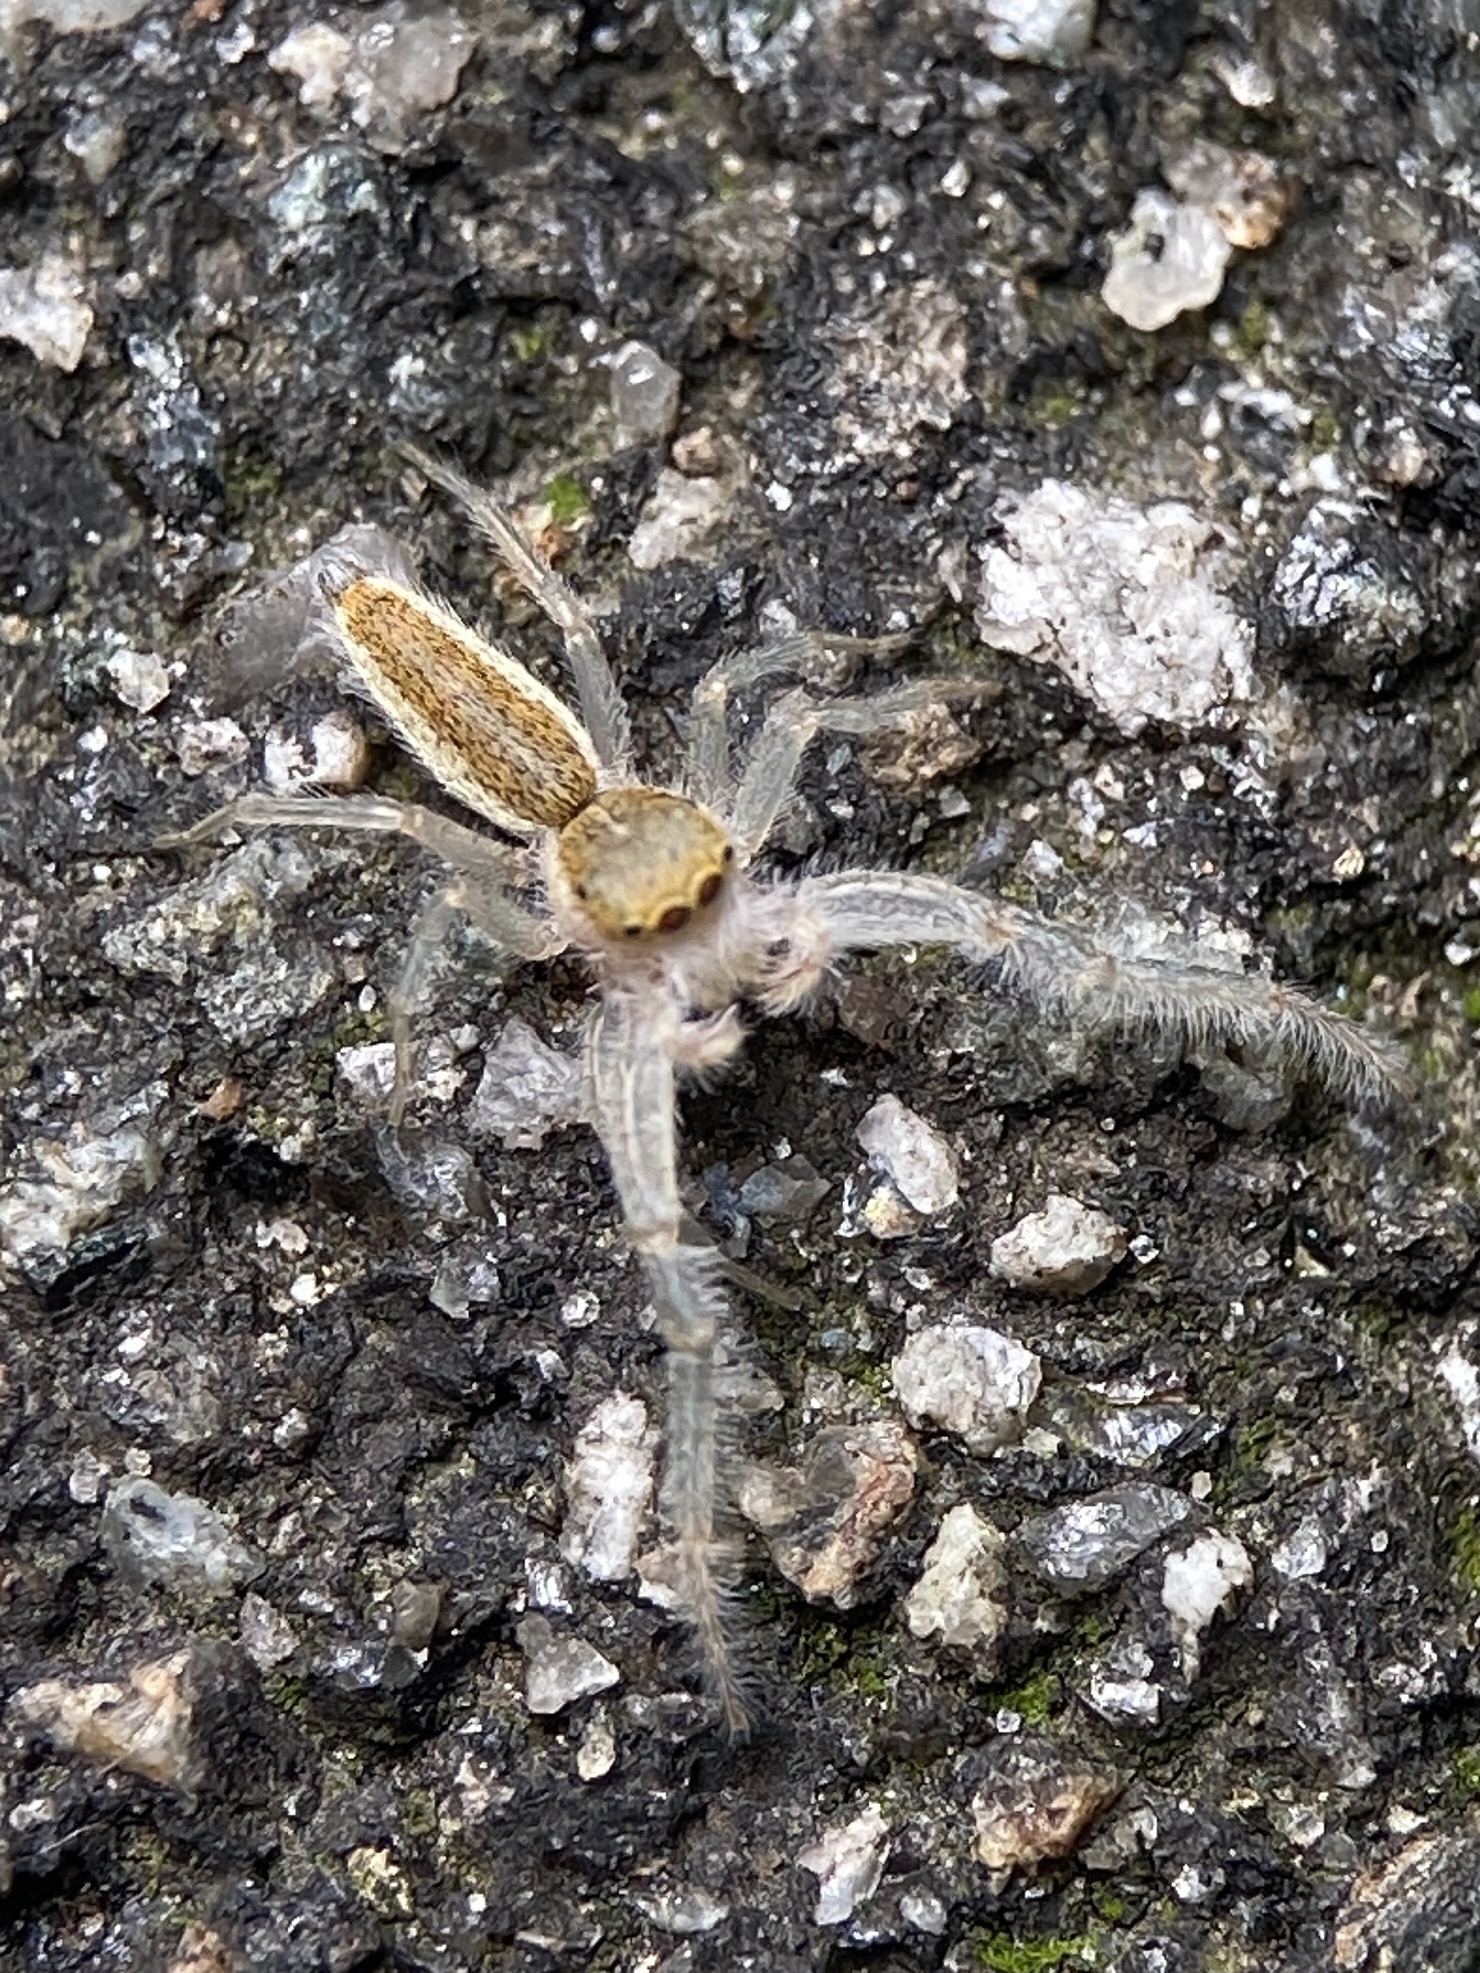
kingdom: Animalia
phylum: Arthropoda
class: Arachnida
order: Araneae
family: Salticidae
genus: Hentzia
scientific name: Hentzia mitrata
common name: White-jawed jumping spider
